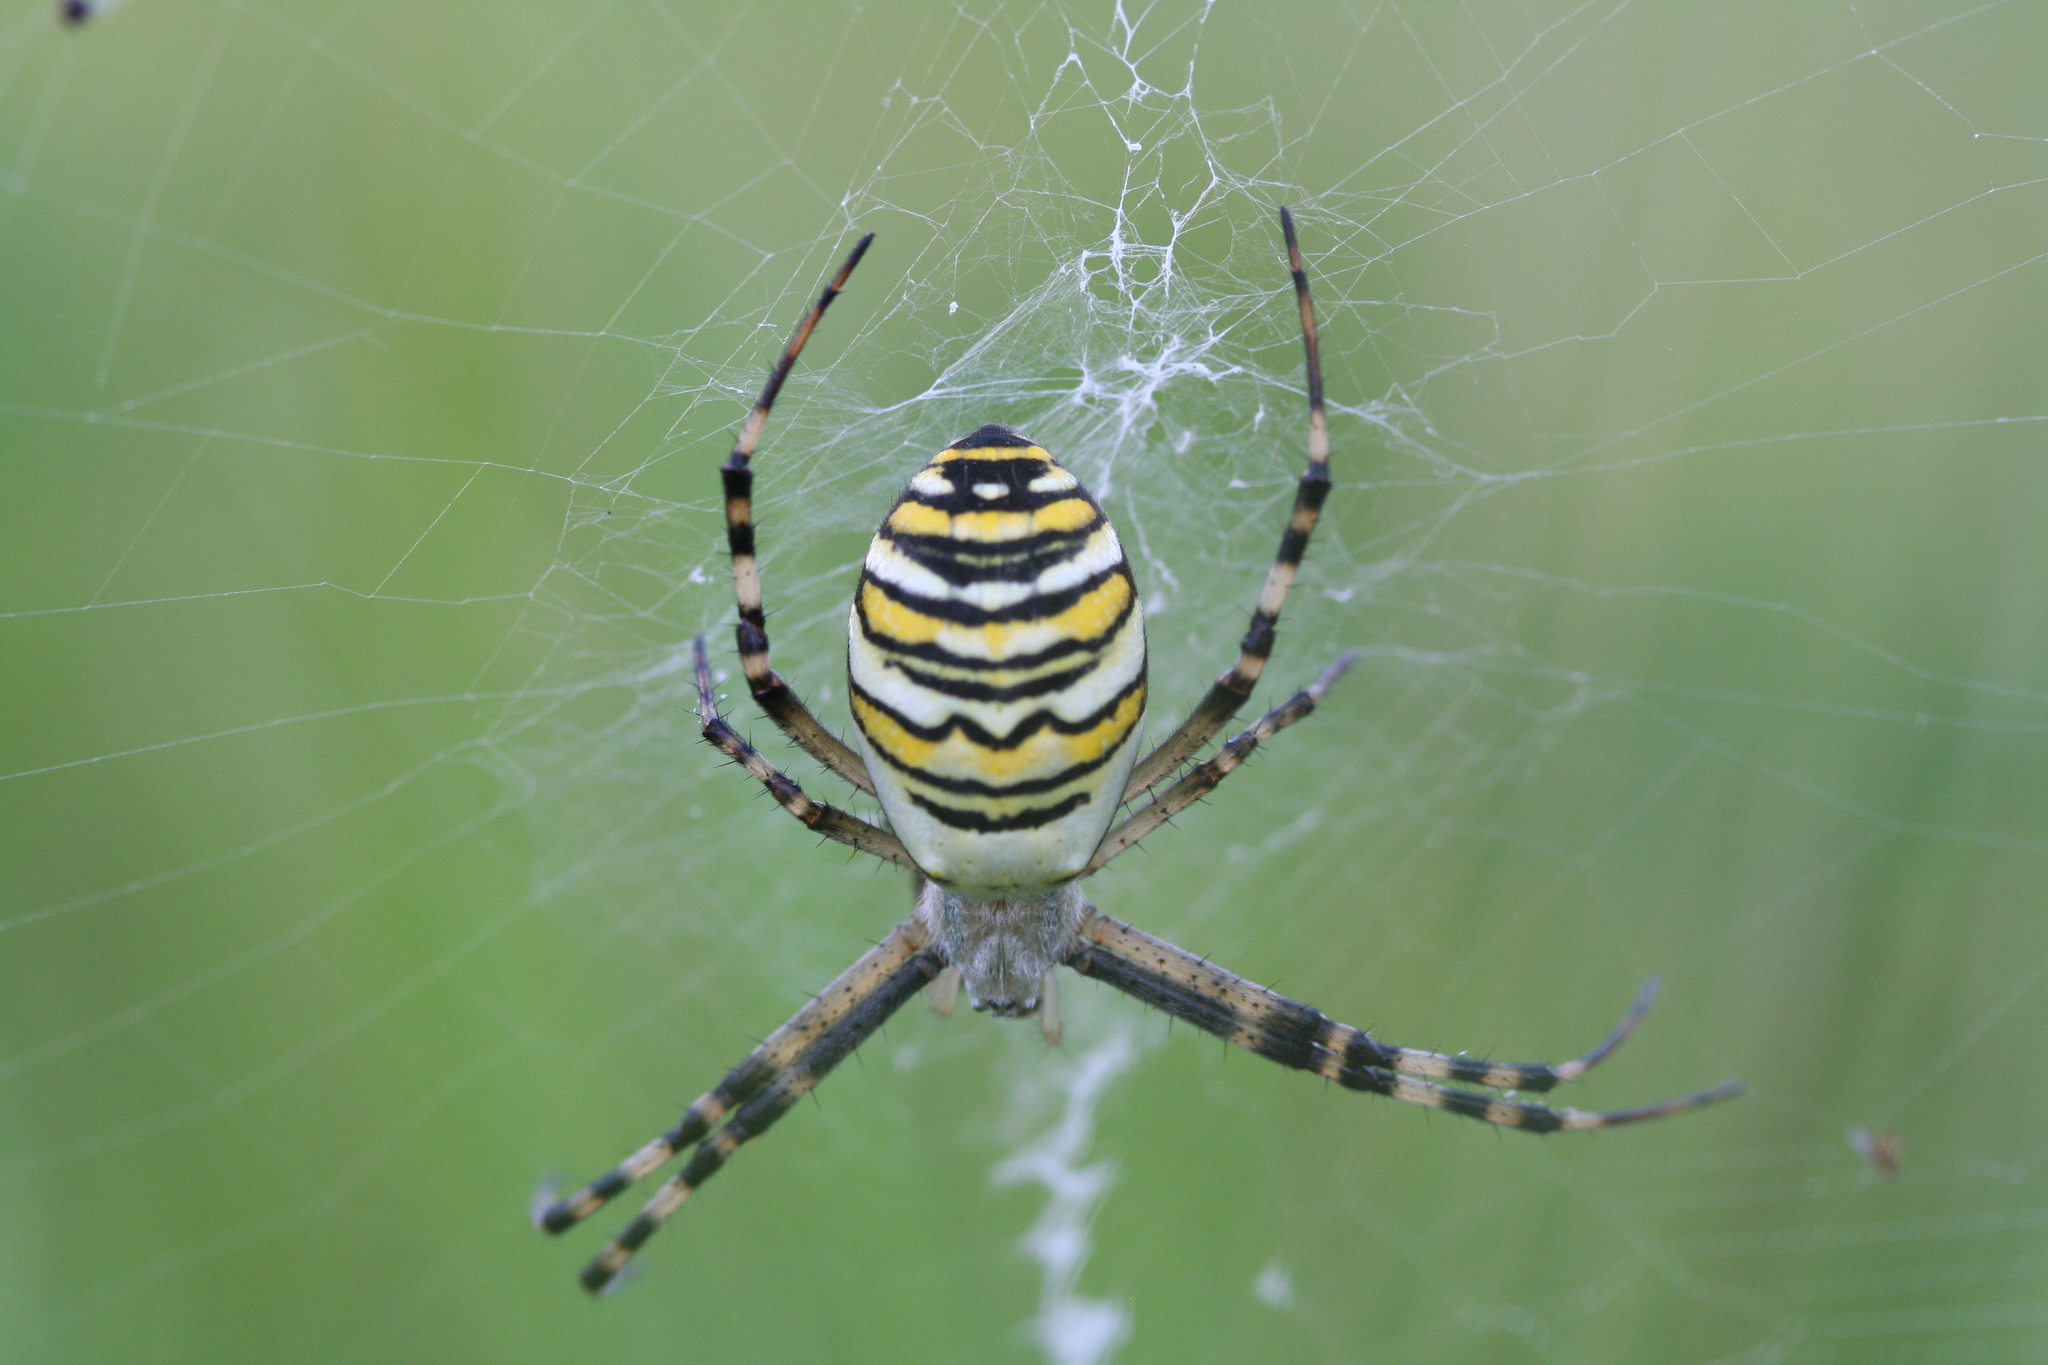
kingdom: Animalia
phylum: Arthropoda
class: Arachnida
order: Araneae
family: Araneidae
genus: Argiope
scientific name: Argiope bruennichi
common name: Wasp spider
